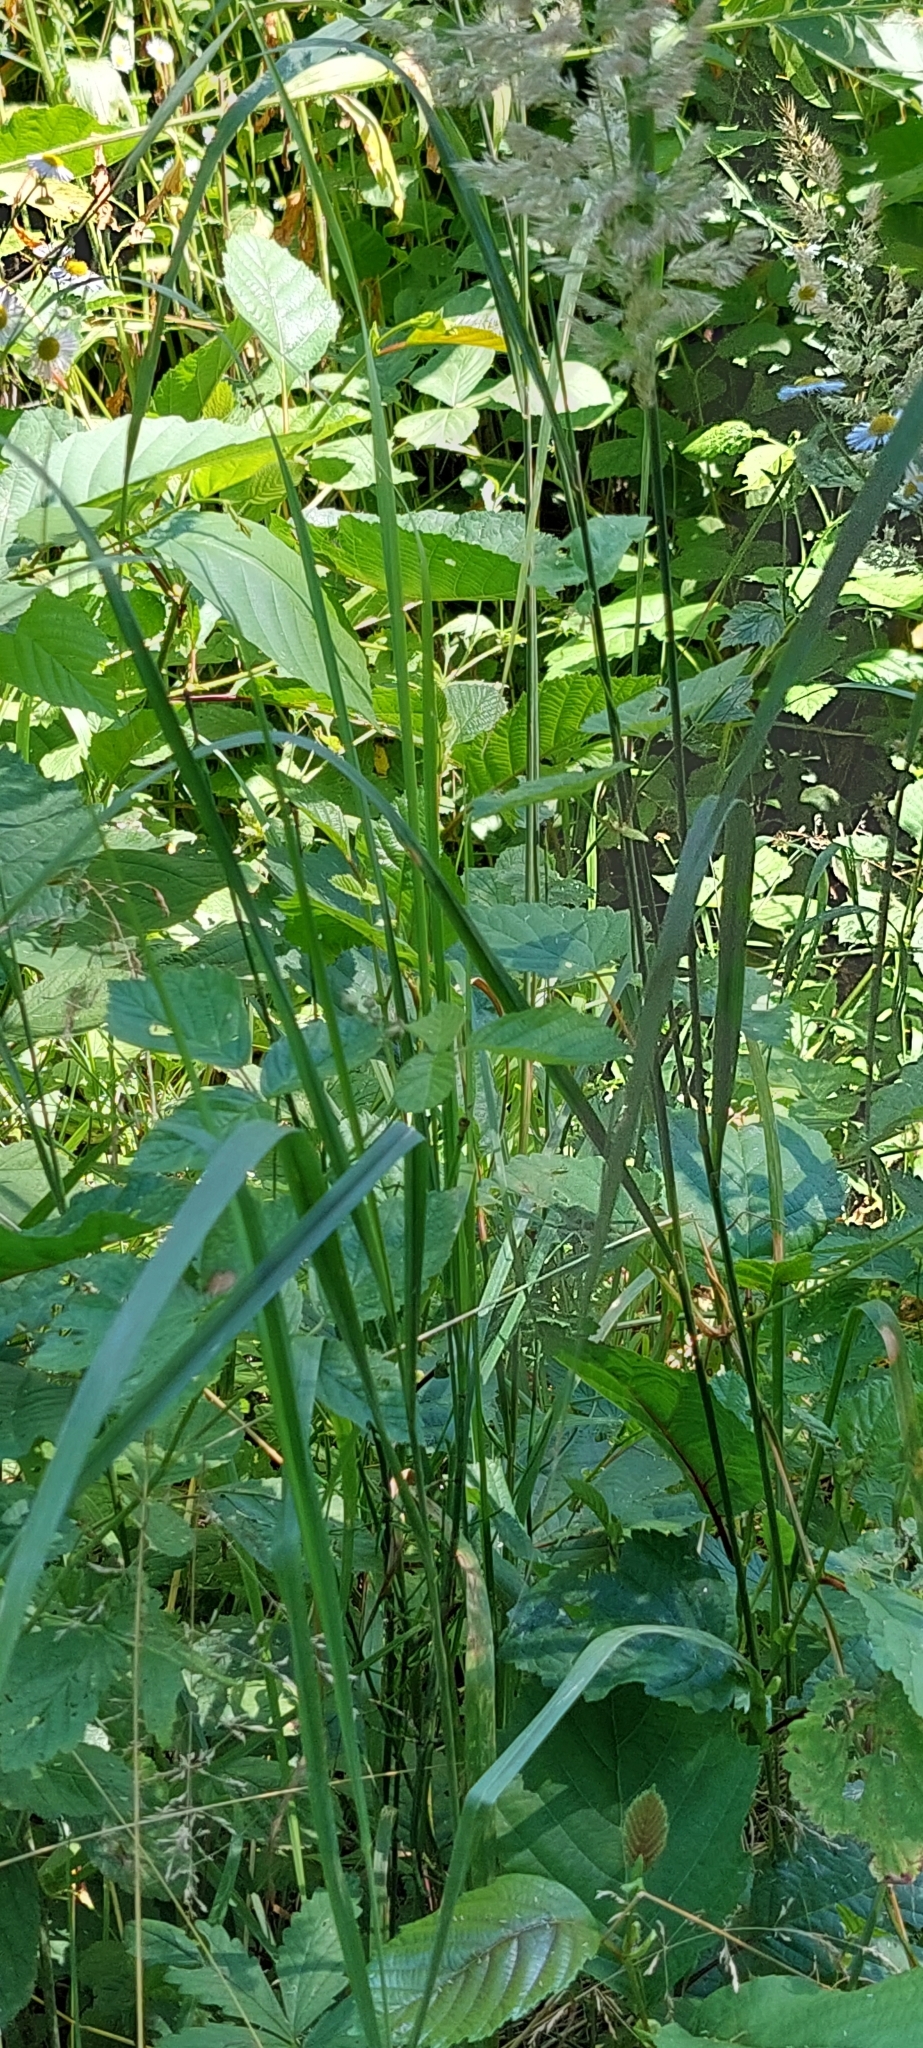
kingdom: Plantae
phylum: Tracheophyta
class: Liliopsida
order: Poales
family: Poaceae
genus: Calamagrostis
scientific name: Calamagrostis epigejos
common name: Wood small-reed
